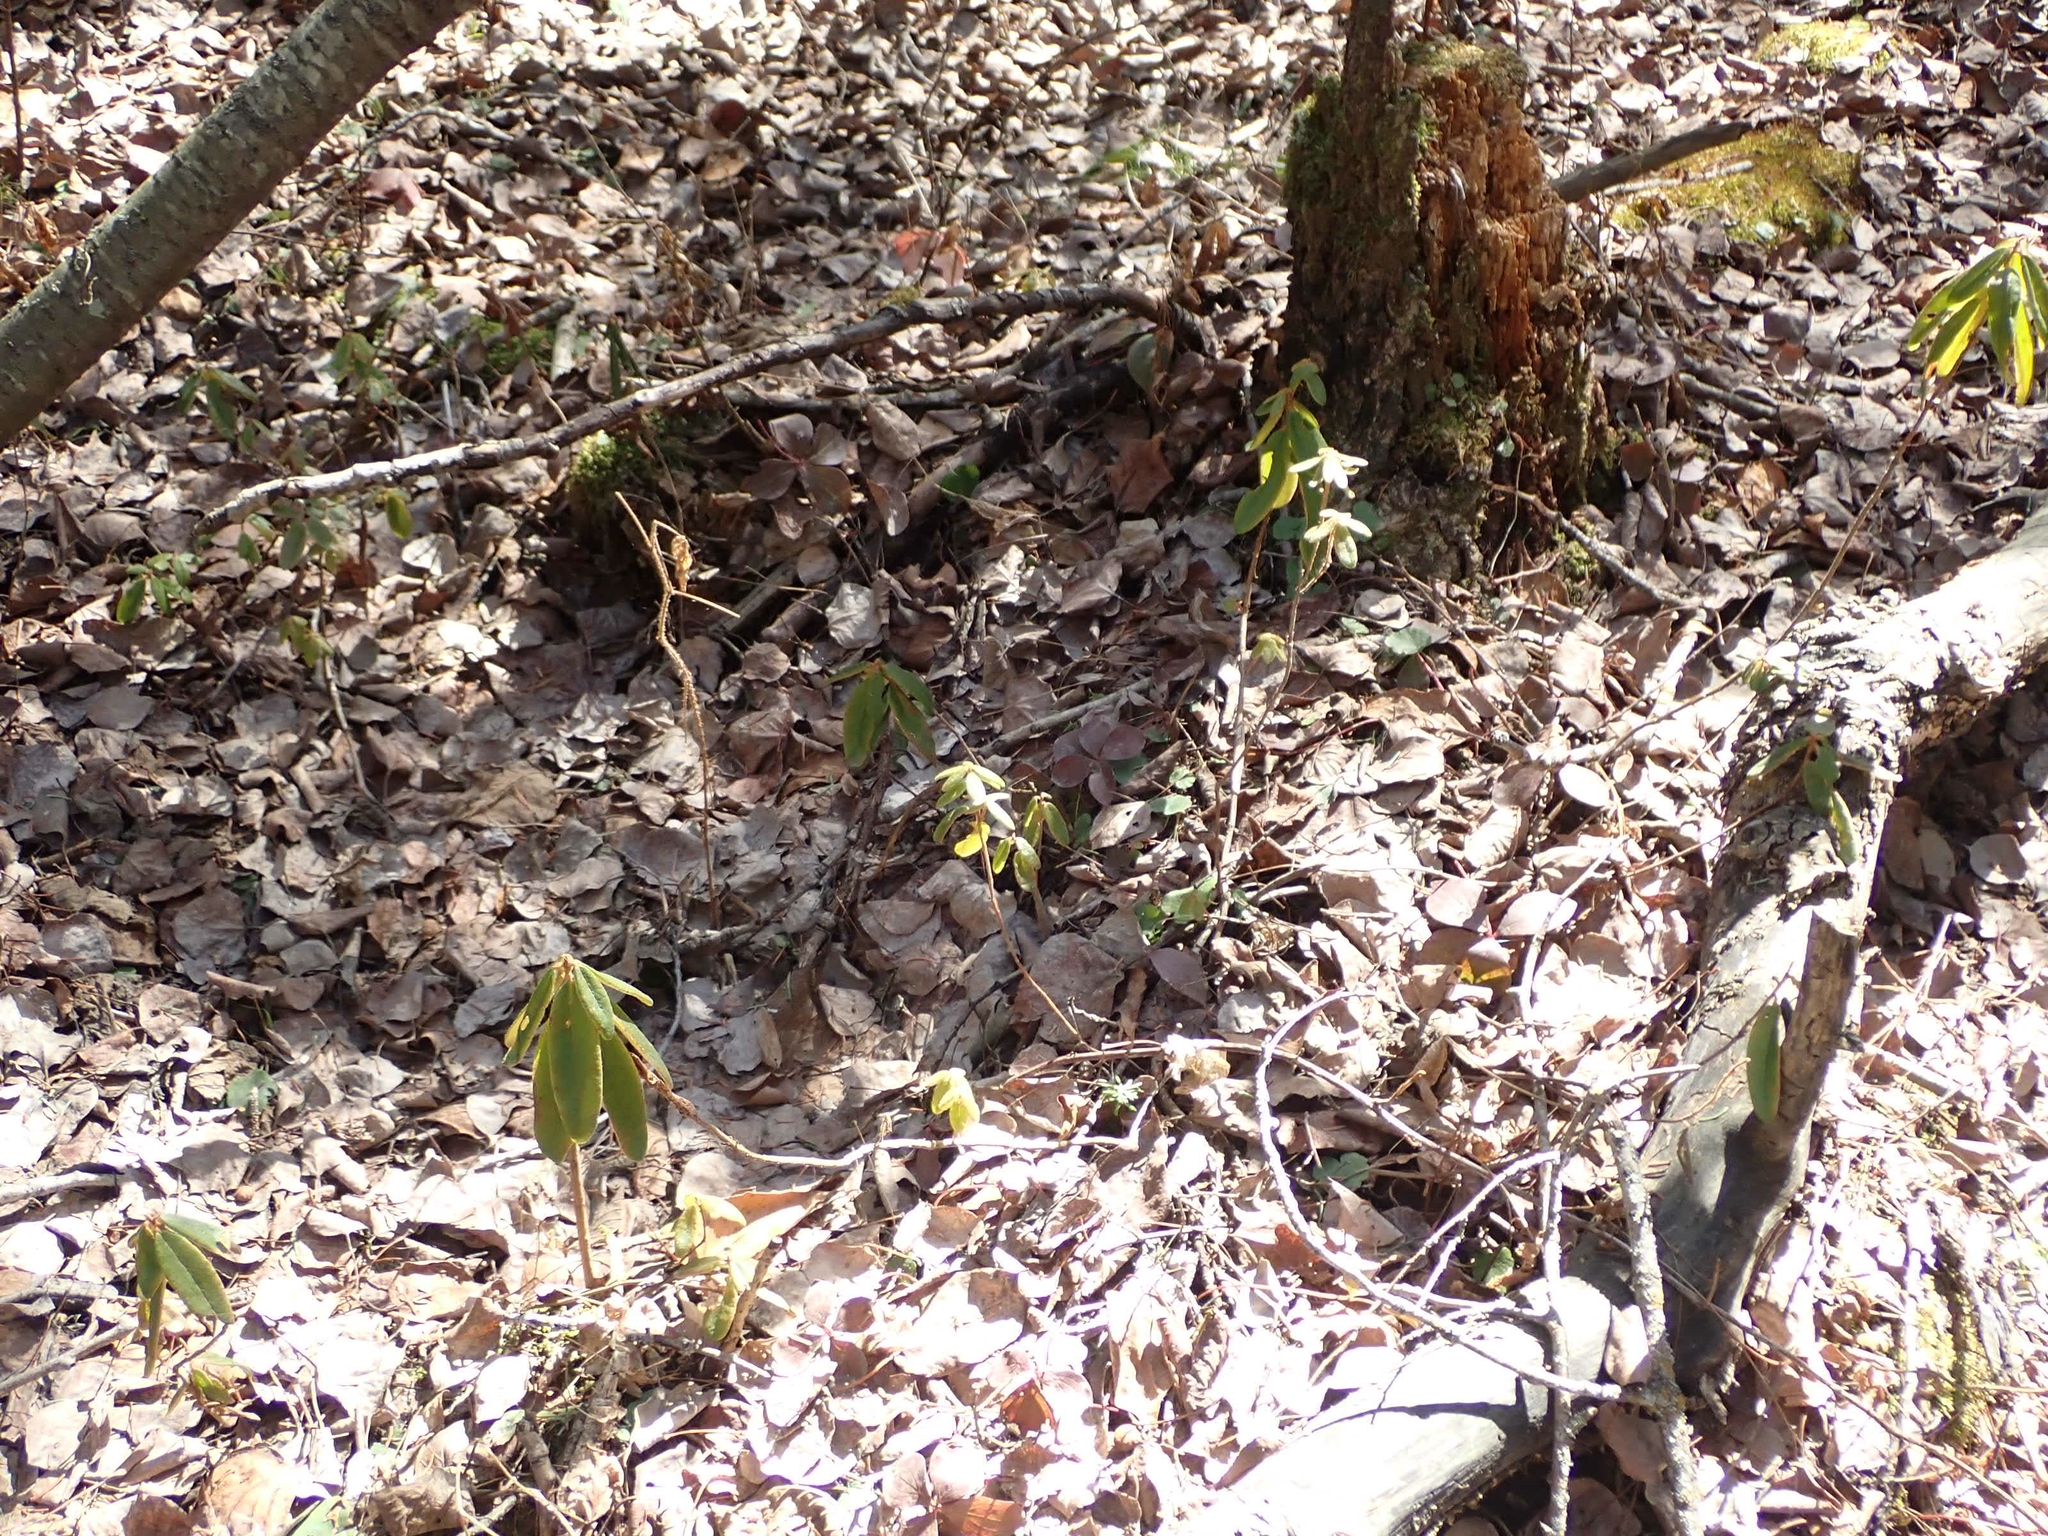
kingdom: Plantae
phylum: Tracheophyta
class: Magnoliopsida
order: Ericales
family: Ericaceae
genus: Rhododendron
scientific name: Rhododendron groenlandicum
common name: Bog labrador tea
